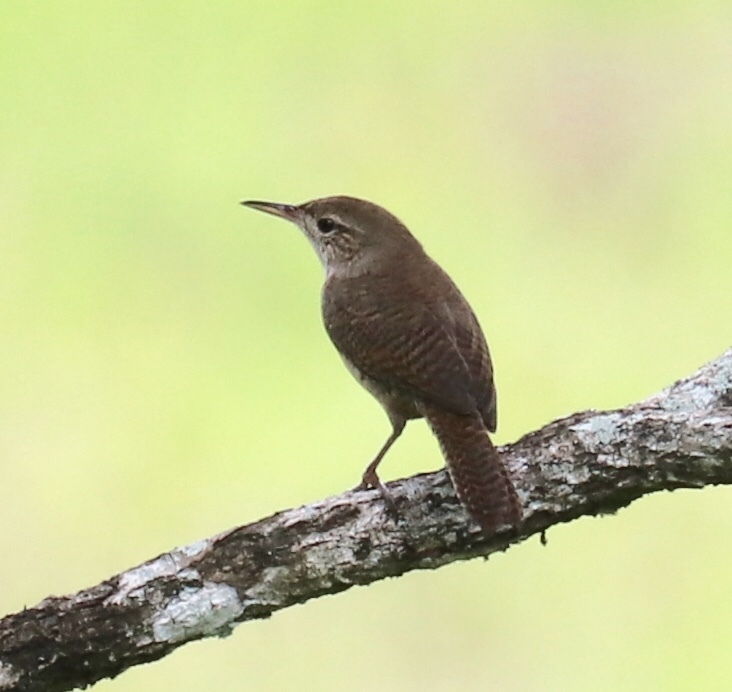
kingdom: Animalia
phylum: Chordata
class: Aves
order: Passeriformes
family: Troglodytidae
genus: Troglodytes
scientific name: Troglodytes aedon
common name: House wren
